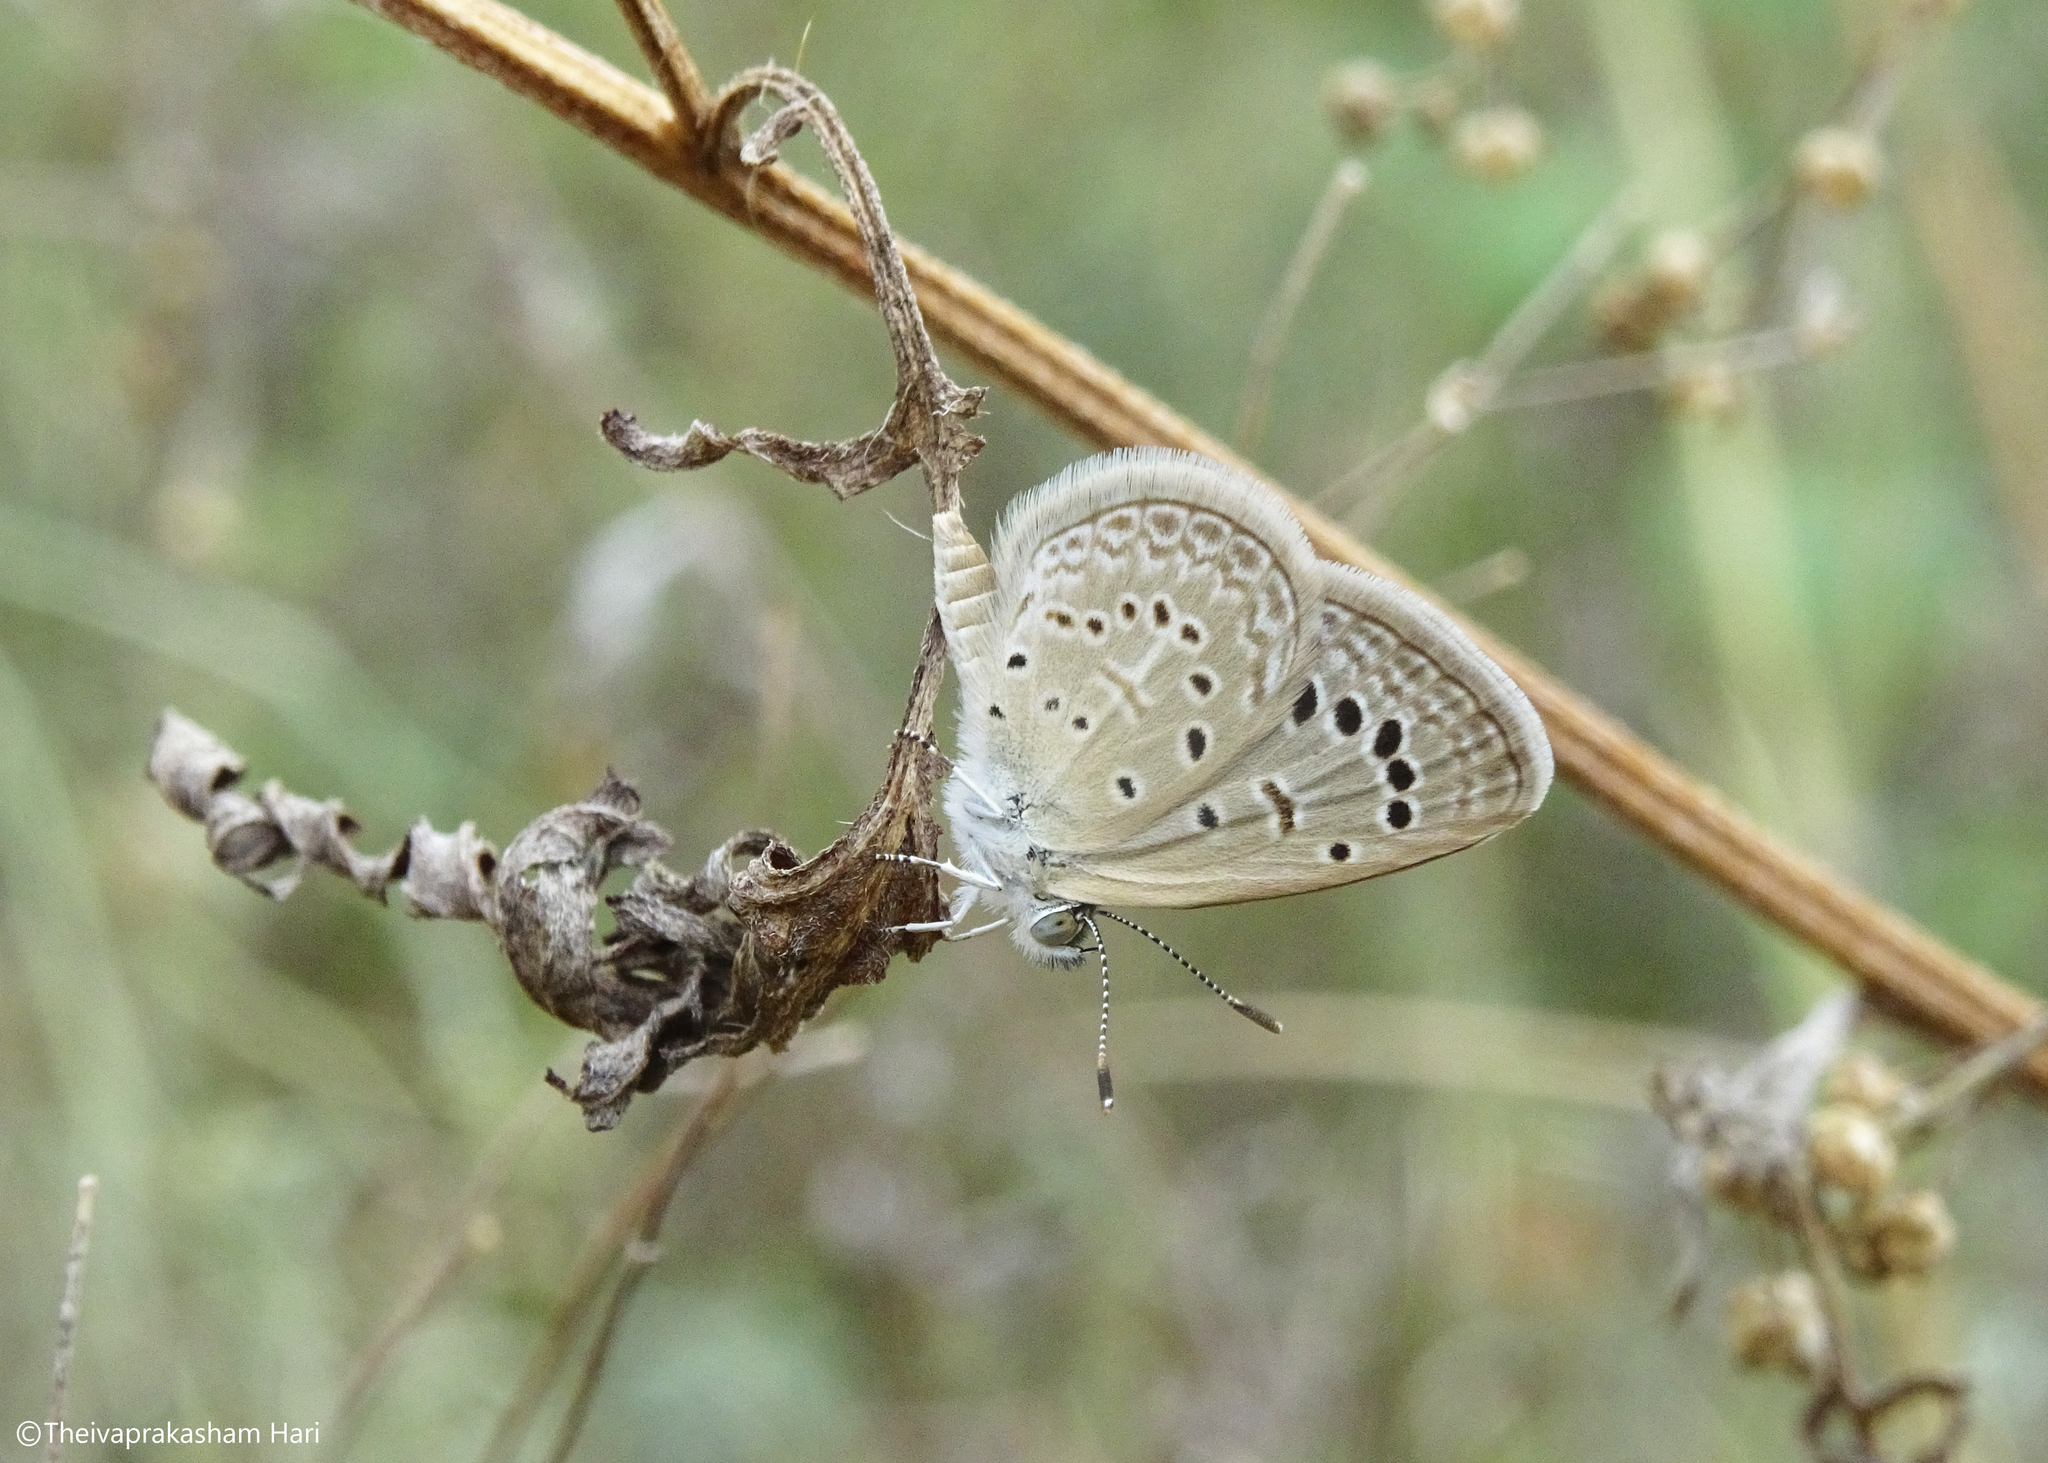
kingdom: Animalia
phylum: Arthropoda
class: Insecta
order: Lepidoptera
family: Lycaenidae
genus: Zizeeria
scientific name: Zizeeria karsandra
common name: Dark grass blue
